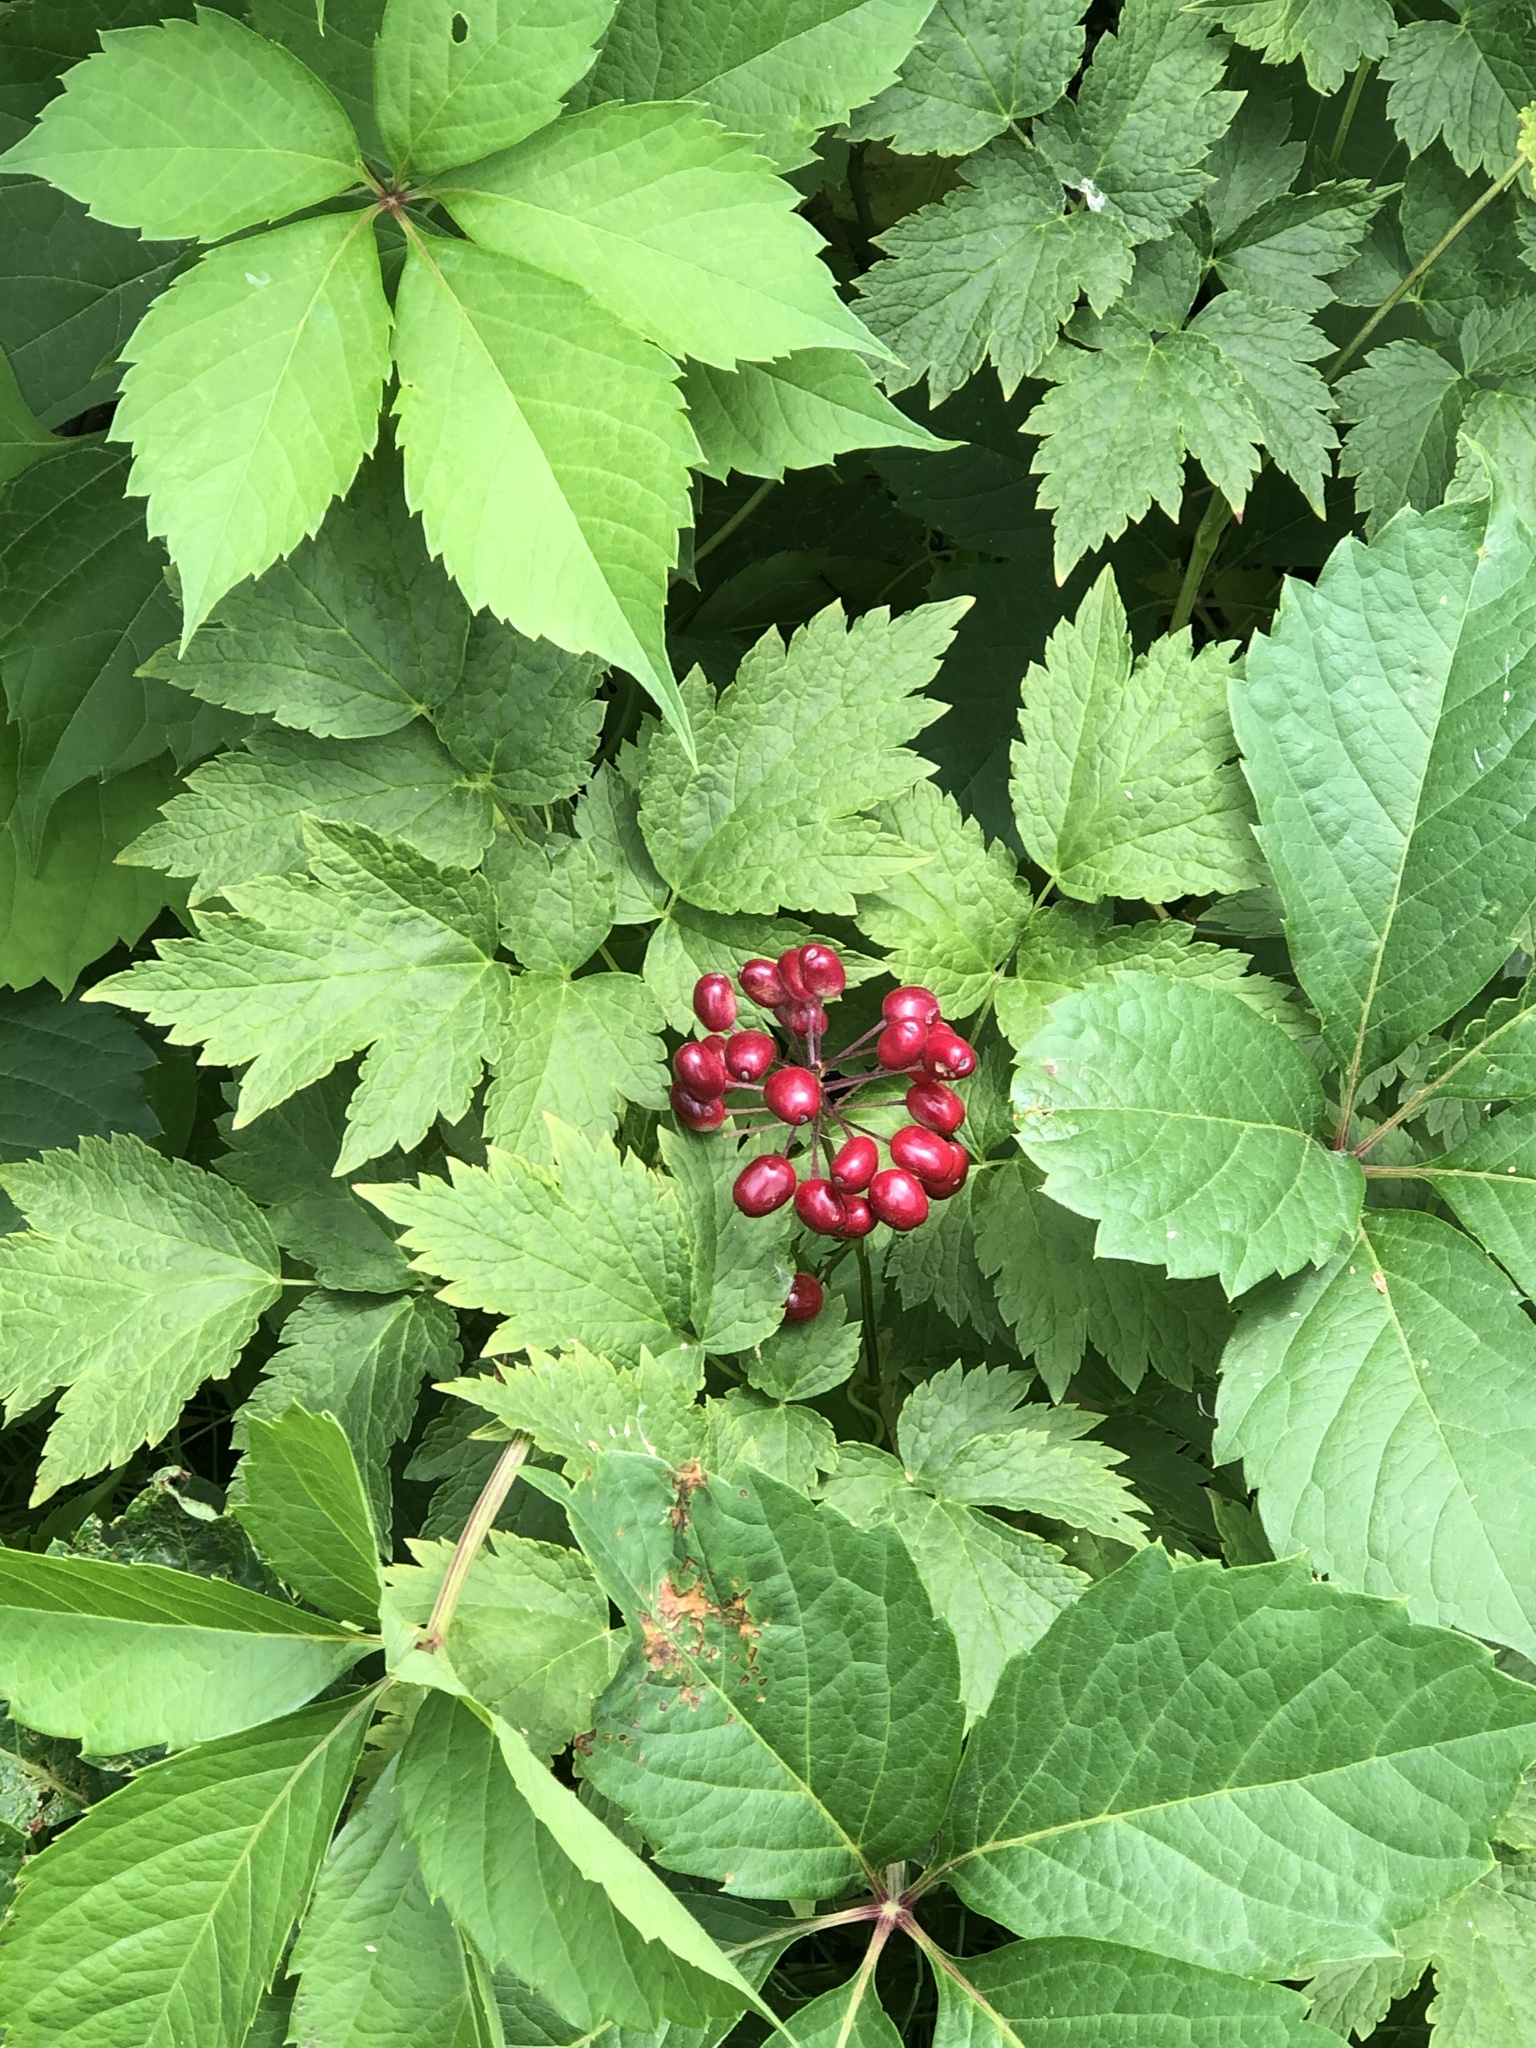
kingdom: Plantae
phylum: Tracheophyta
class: Magnoliopsida
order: Ranunculales
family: Ranunculaceae
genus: Actaea
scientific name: Actaea rubra
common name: Red baneberry
